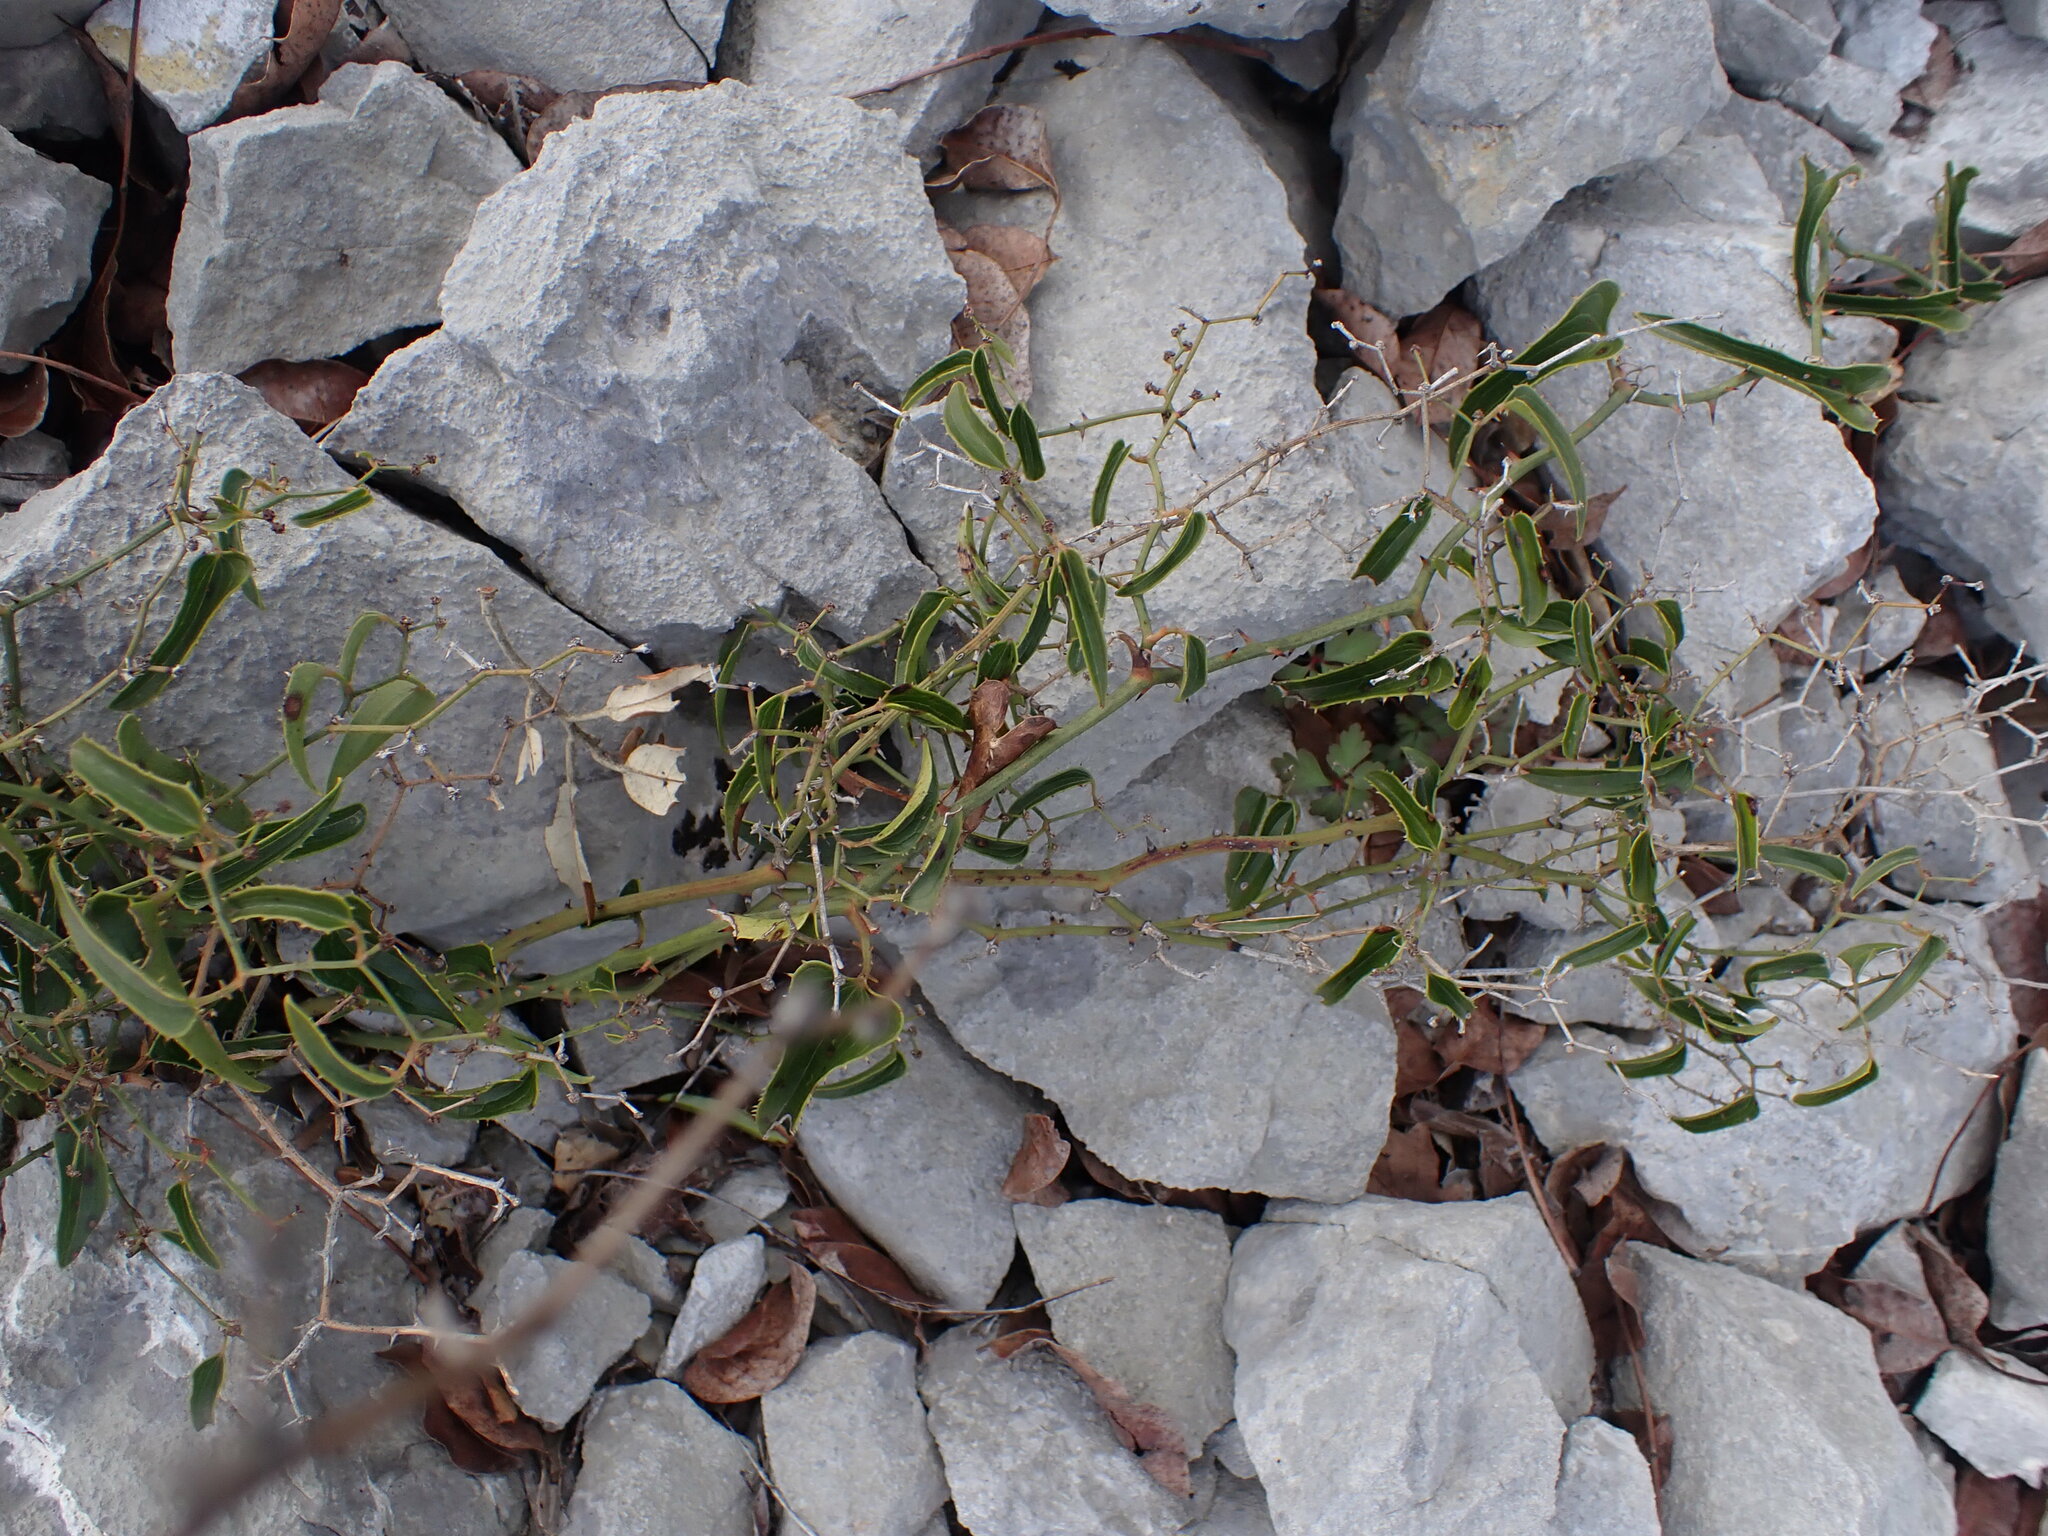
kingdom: Plantae
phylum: Tracheophyta
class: Magnoliopsida
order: Asterales
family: Asteraceae
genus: Lactuca
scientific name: Lactuca viminea
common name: Pliant lettuce
